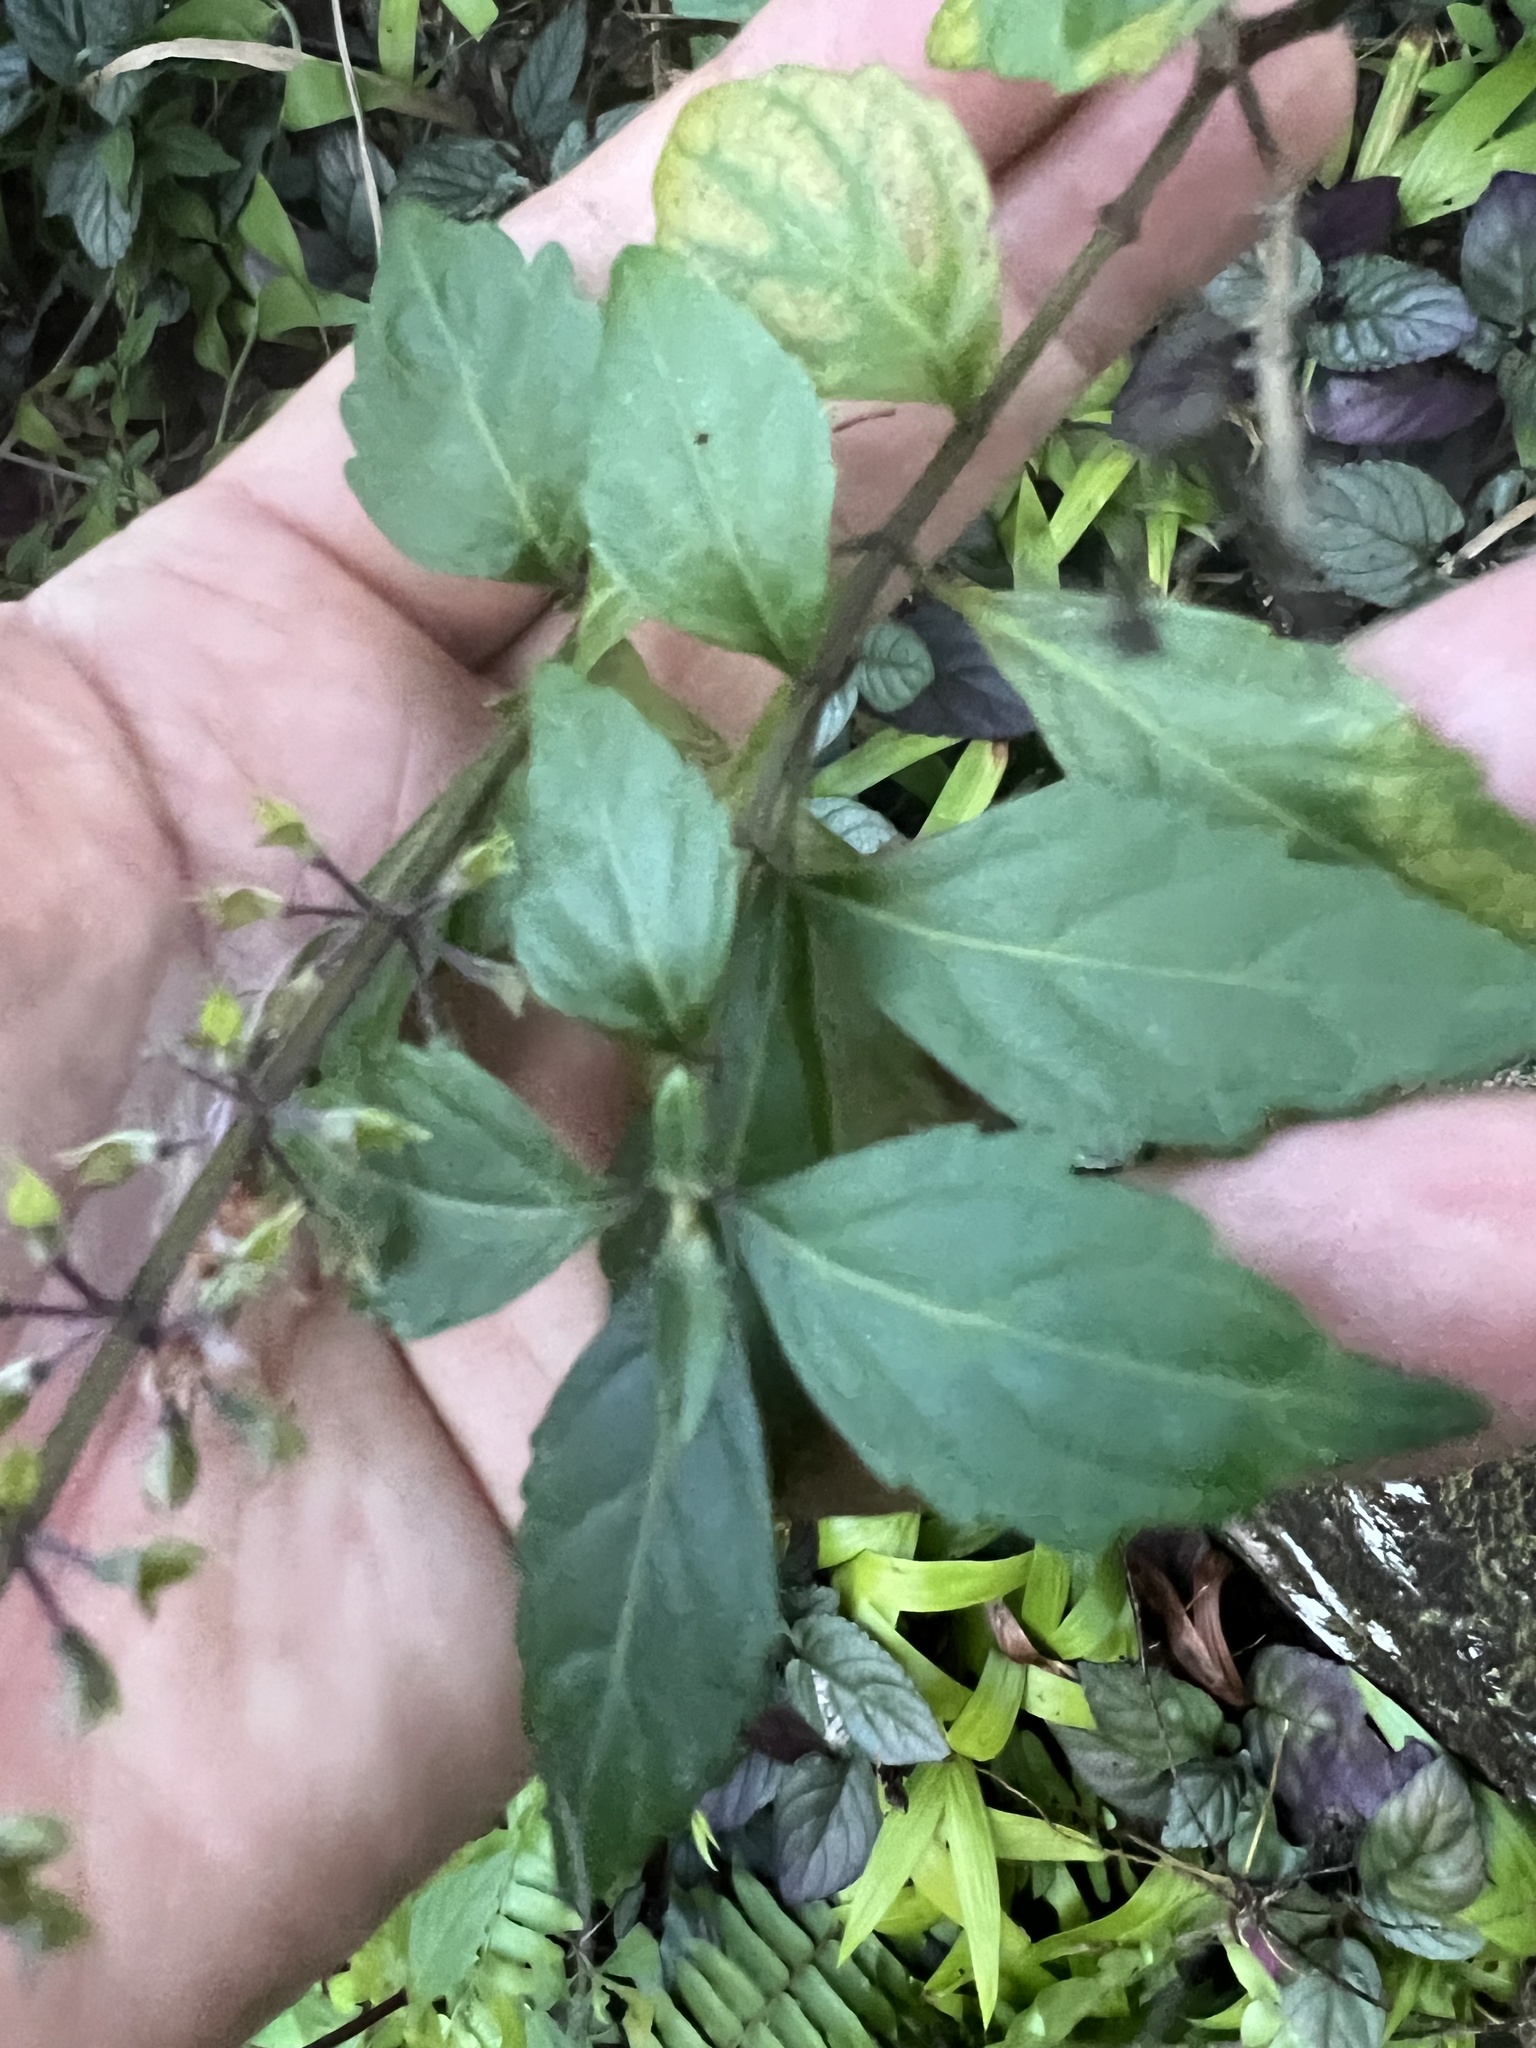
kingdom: Plantae
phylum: Tracheophyta
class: Magnoliopsida
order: Lamiales
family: Lamiaceae
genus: Orthosiphon
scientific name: Orthosiphon aristatus
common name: Whiskerplant
